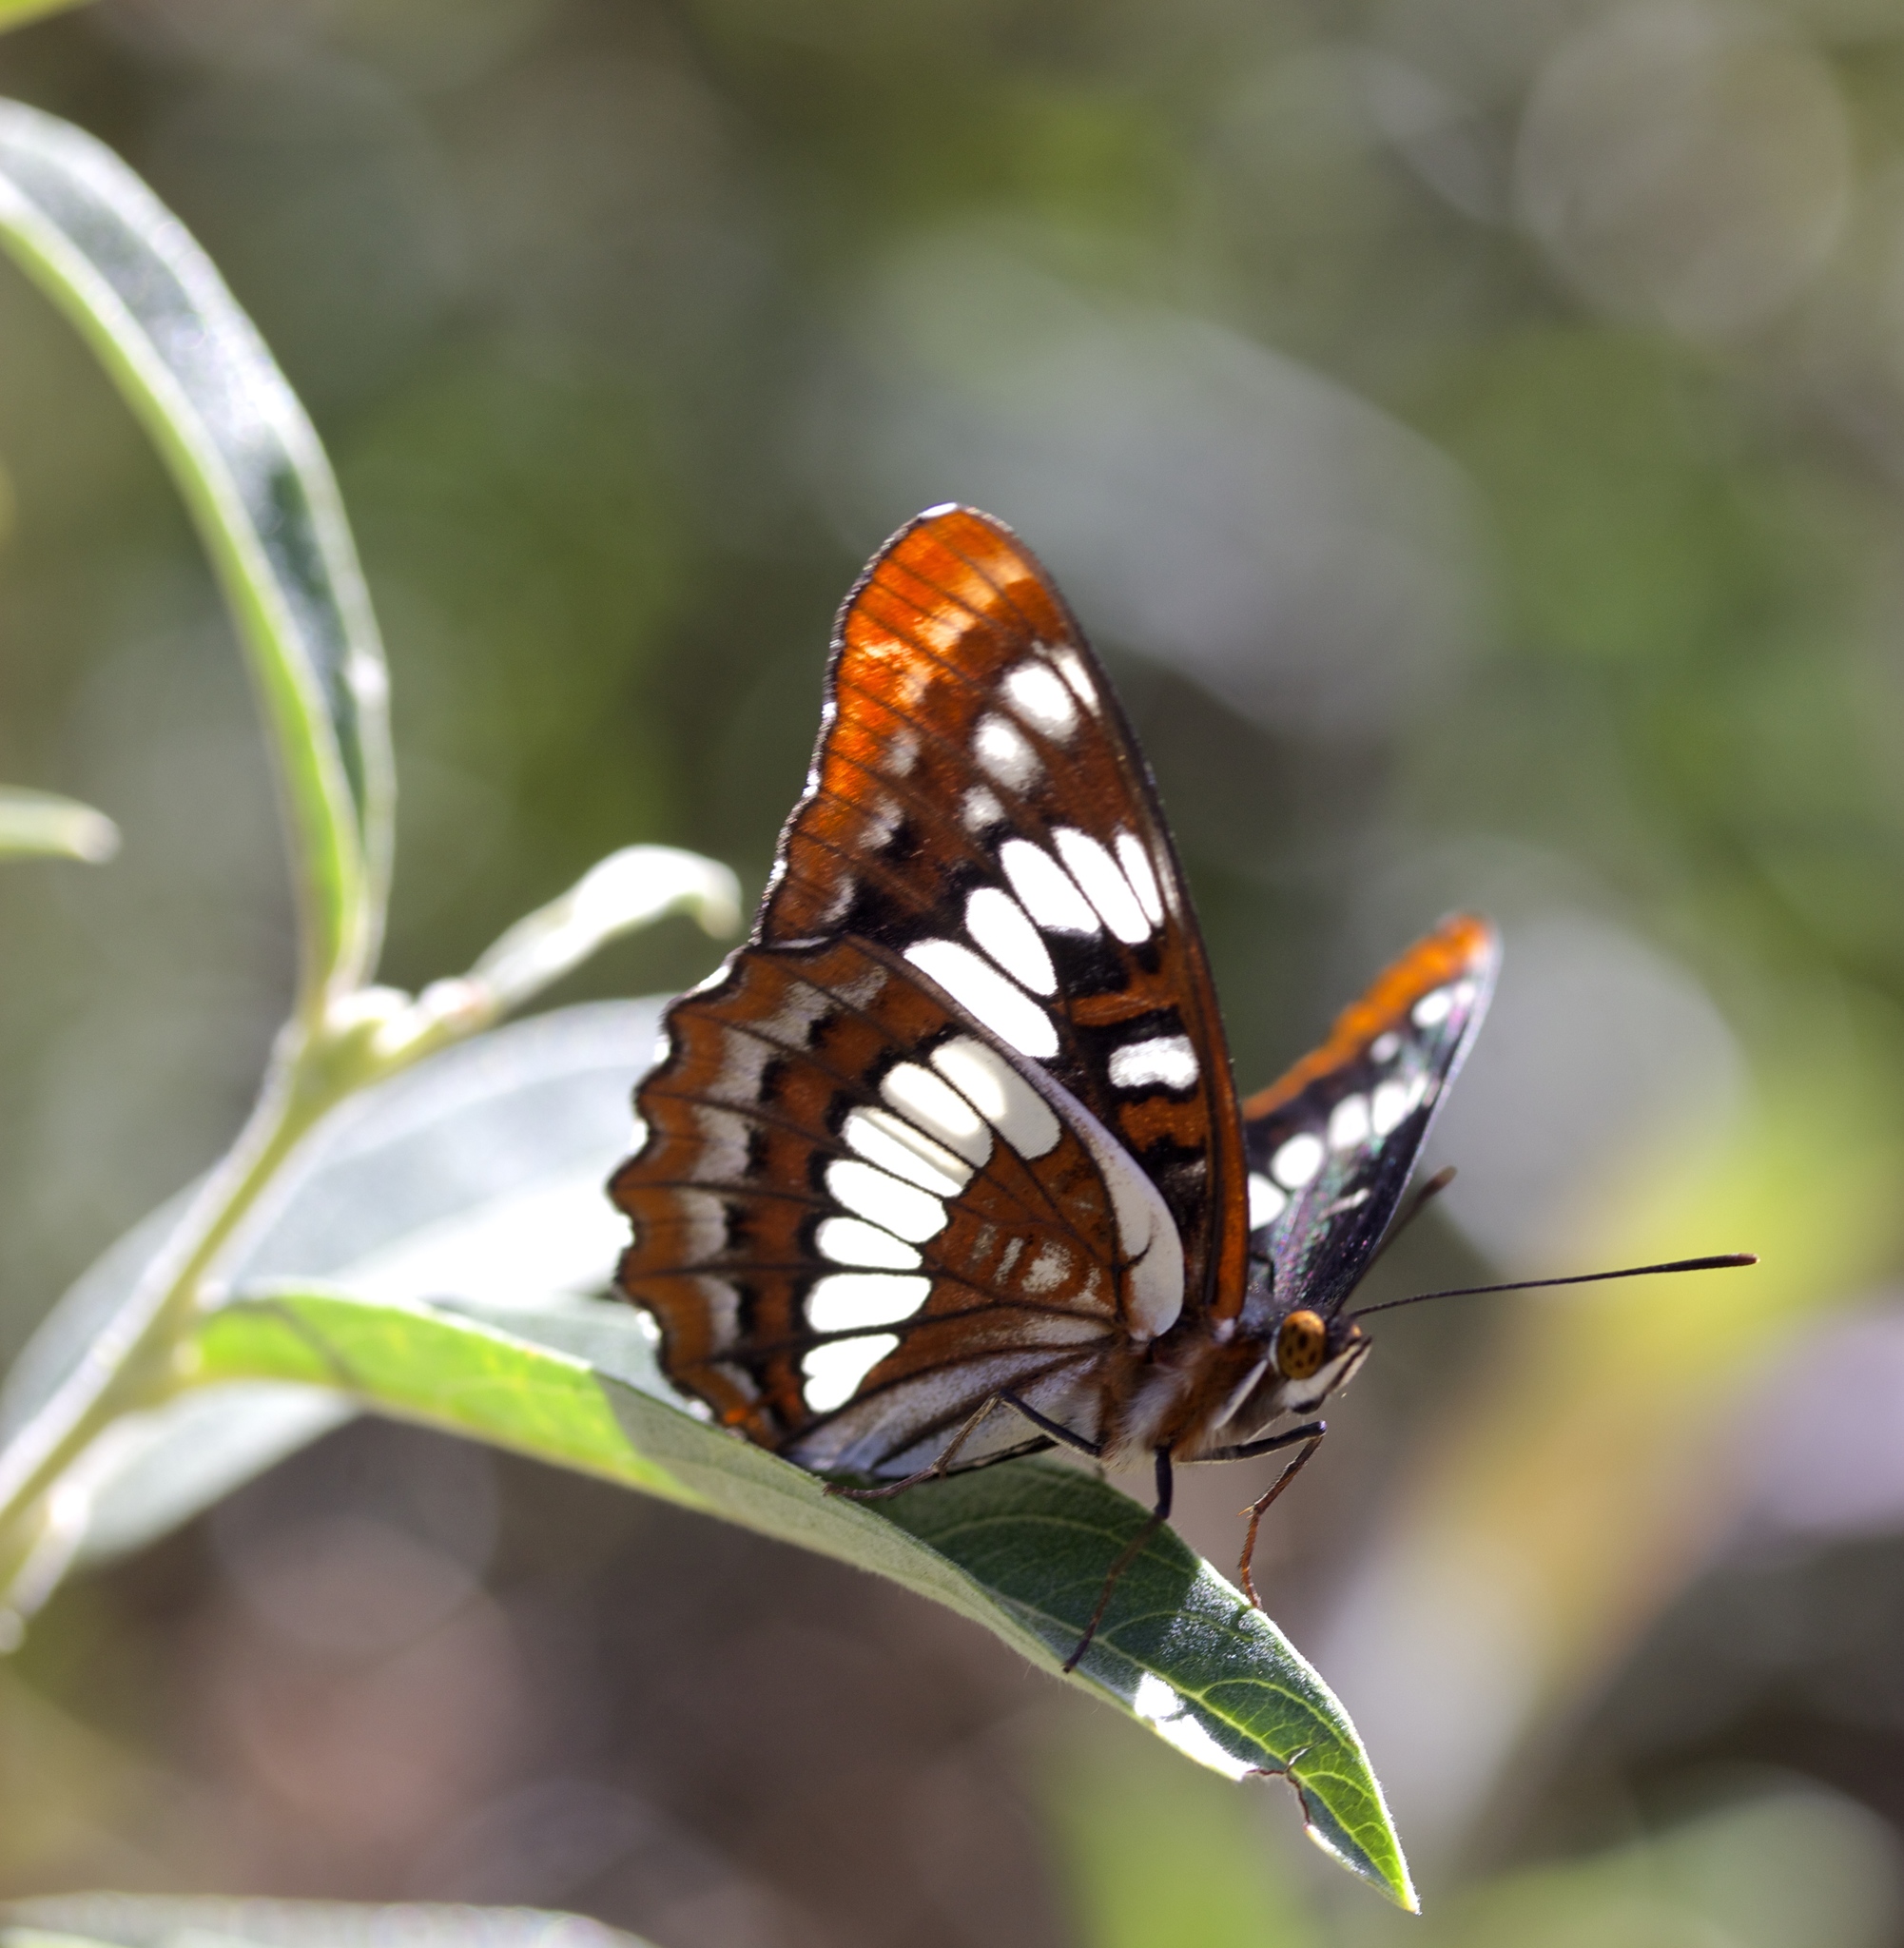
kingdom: Animalia
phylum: Arthropoda
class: Insecta
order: Lepidoptera
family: Nymphalidae
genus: Limenitis
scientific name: Limenitis lorquini
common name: Lorquin's admiral
